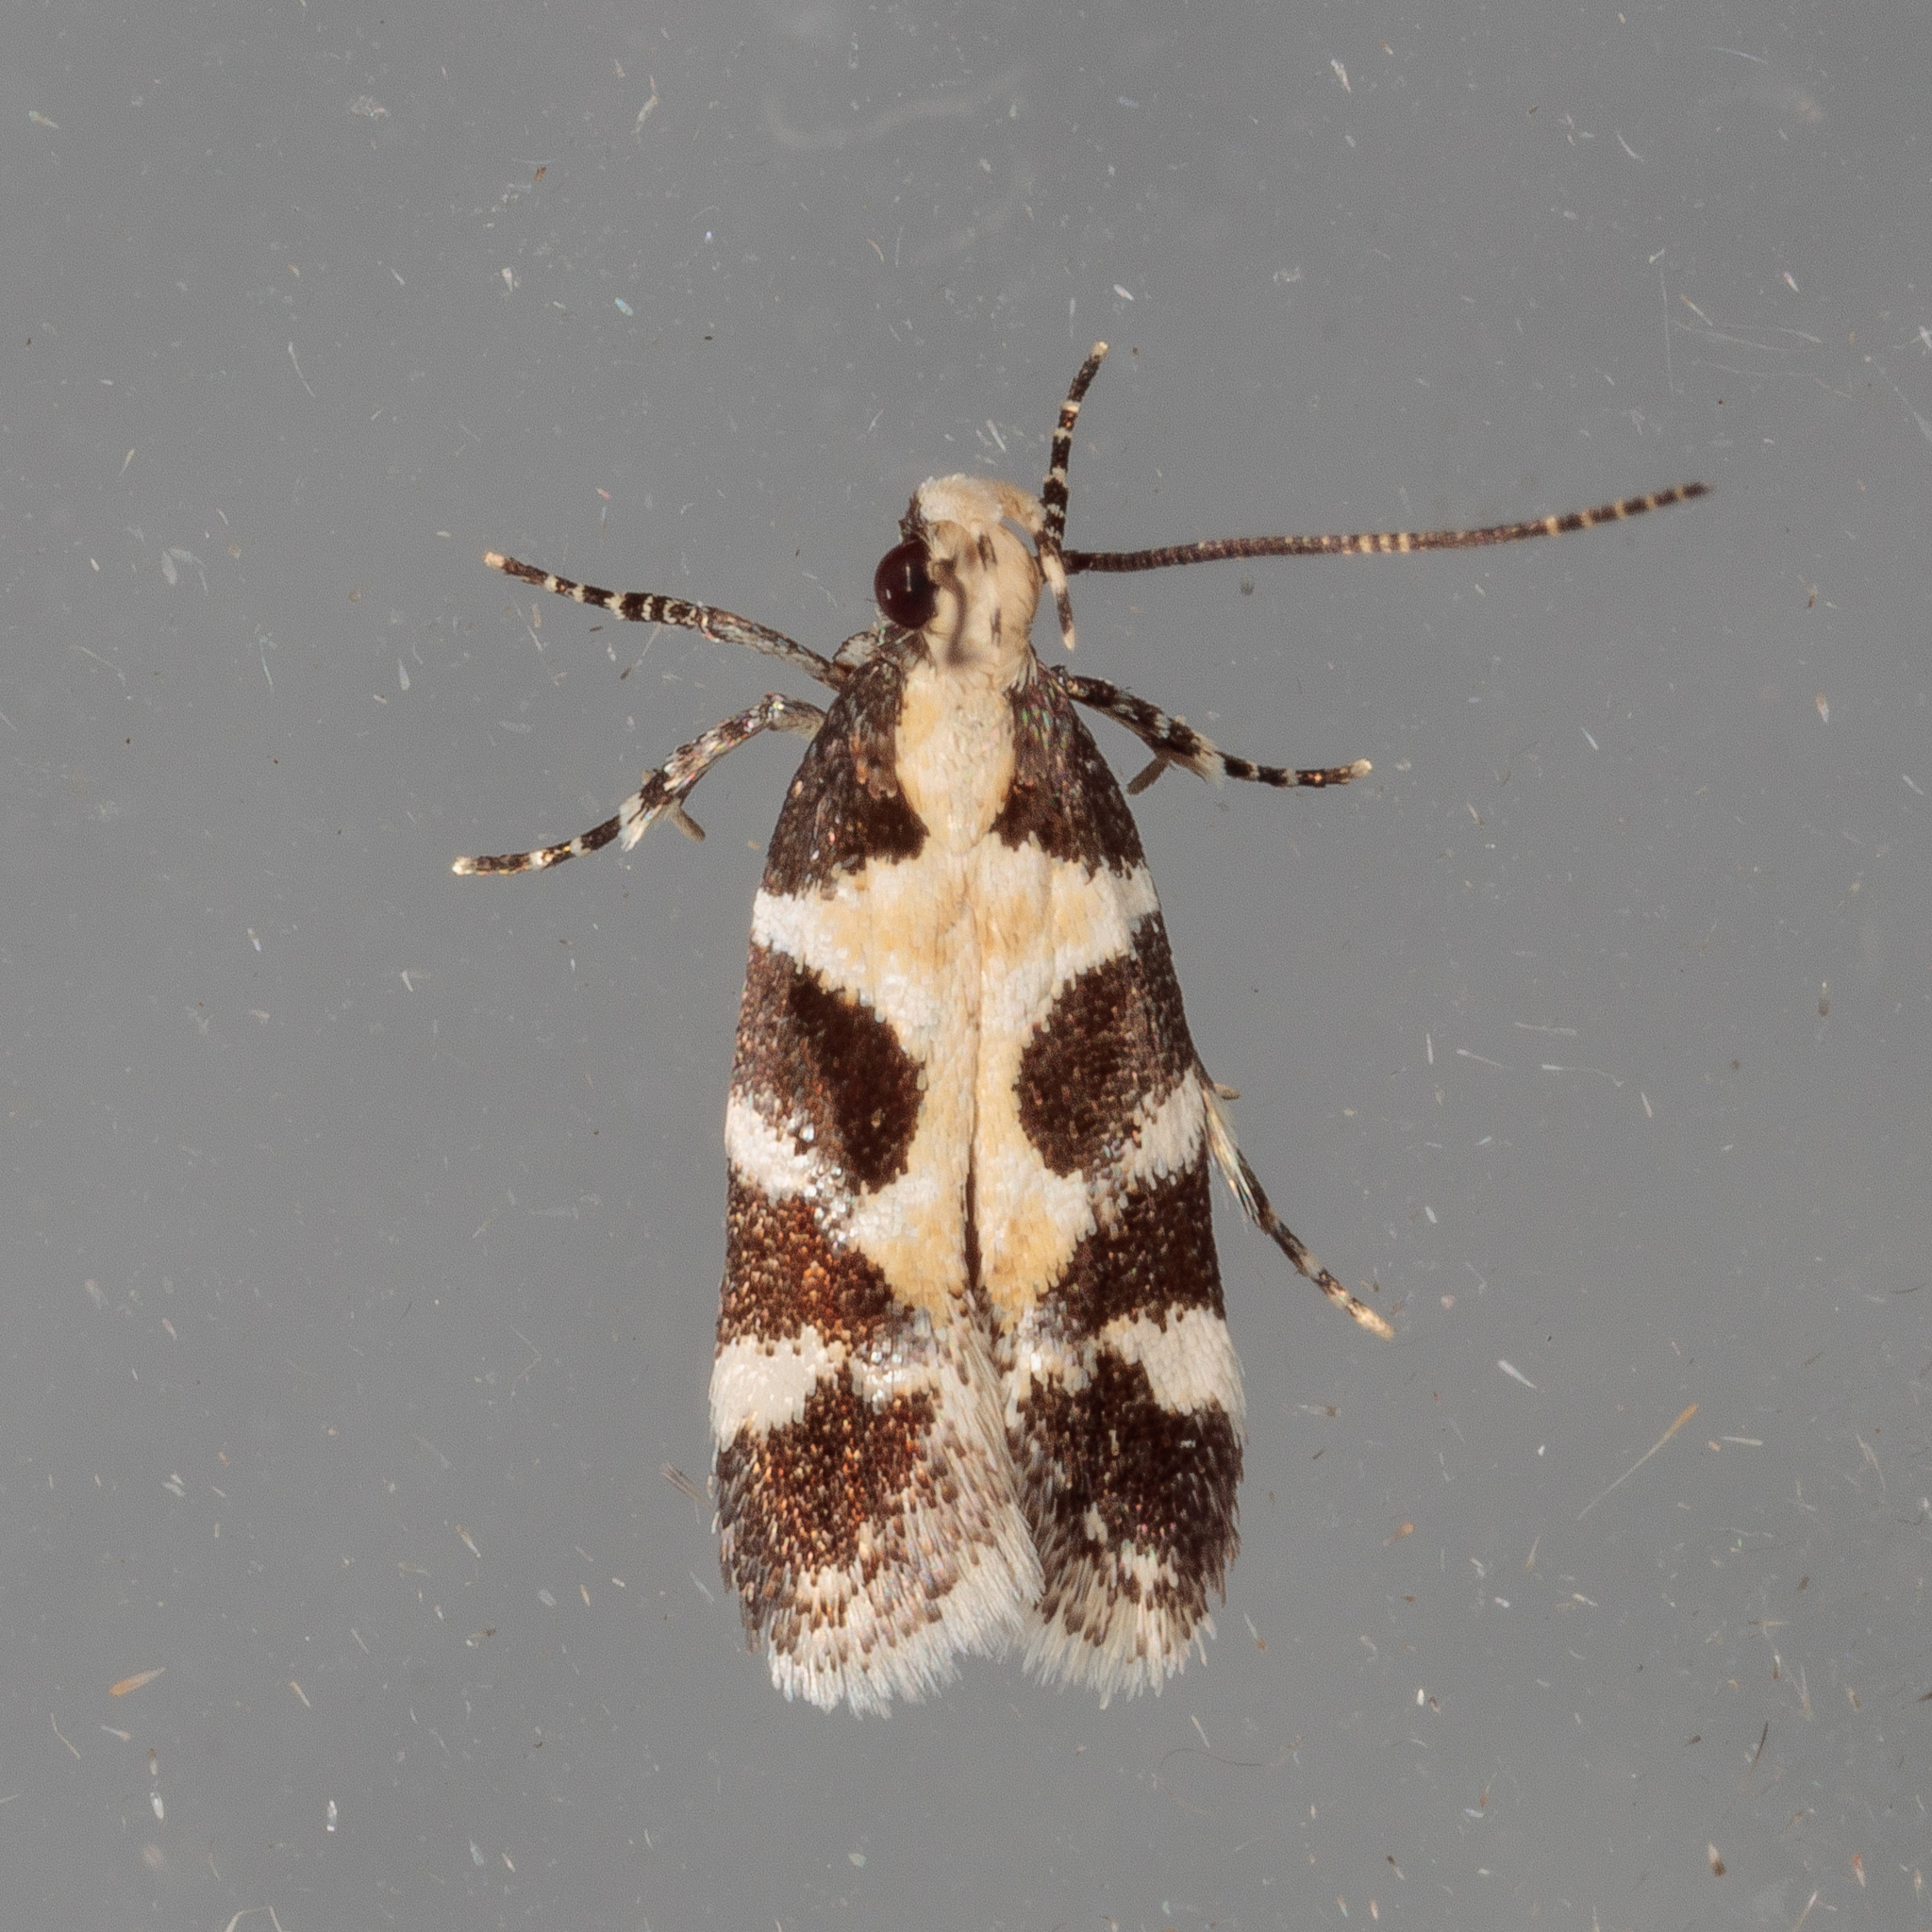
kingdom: Animalia
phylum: Arthropoda
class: Insecta
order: Lepidoptera
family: Gelechiidae
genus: Stegasta
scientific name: Stegasta capitella
